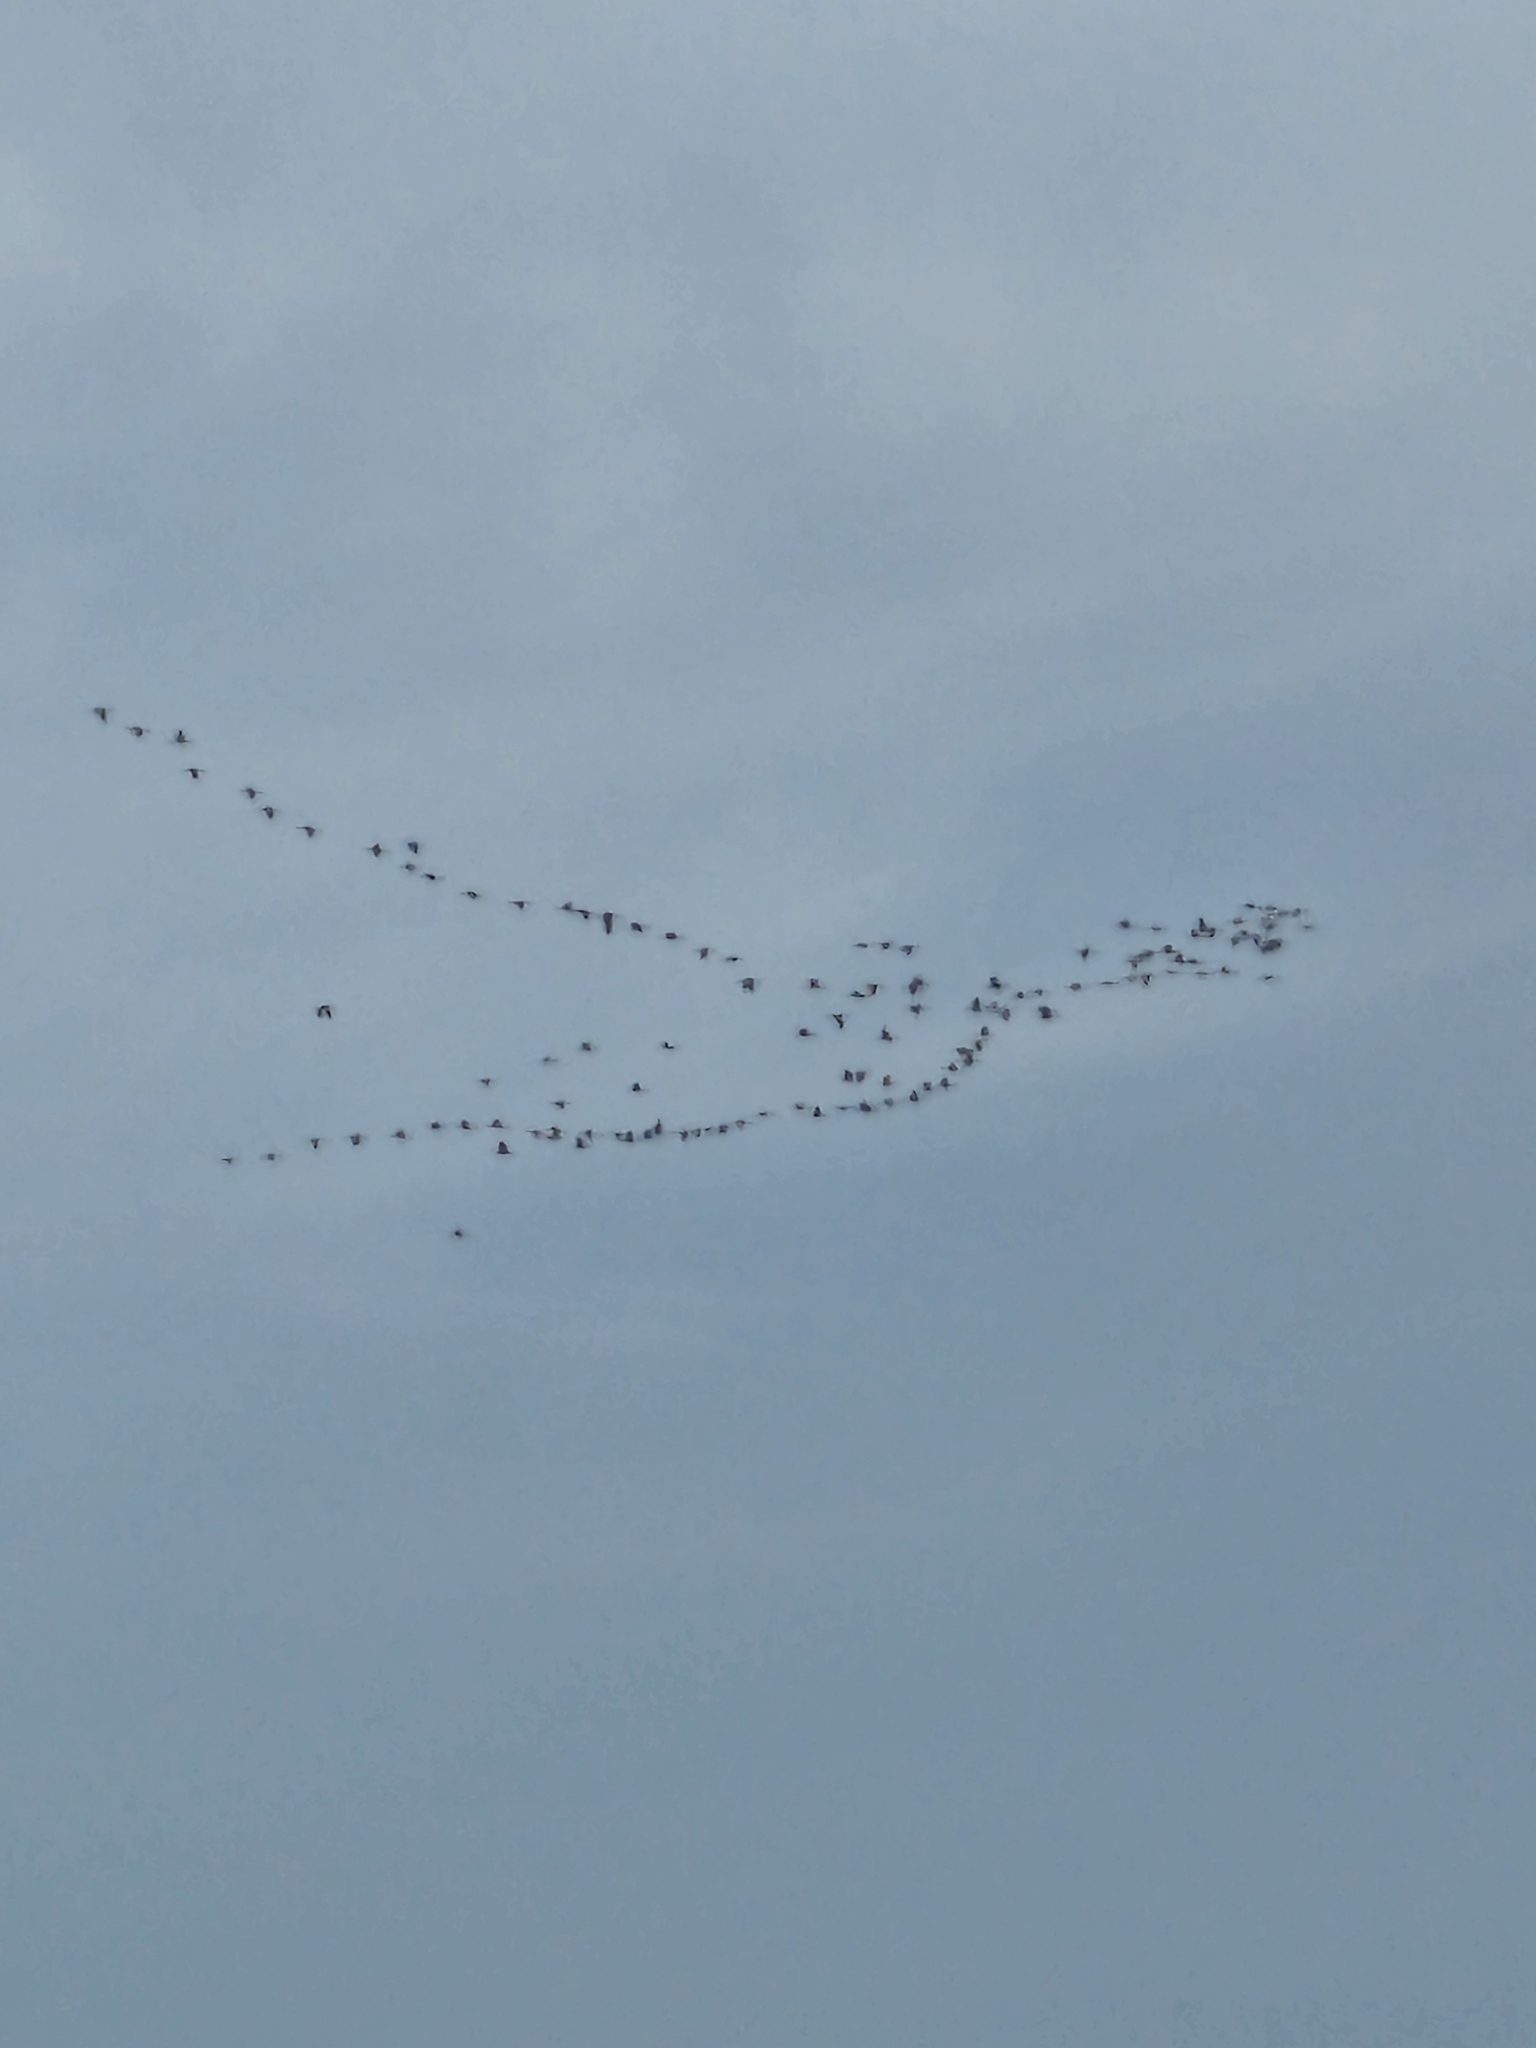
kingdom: Animalia
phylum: Chordata
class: Aves
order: Gruiformes
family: Gruidae
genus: Grus
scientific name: Grus canadensis
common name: Sandhill crane
